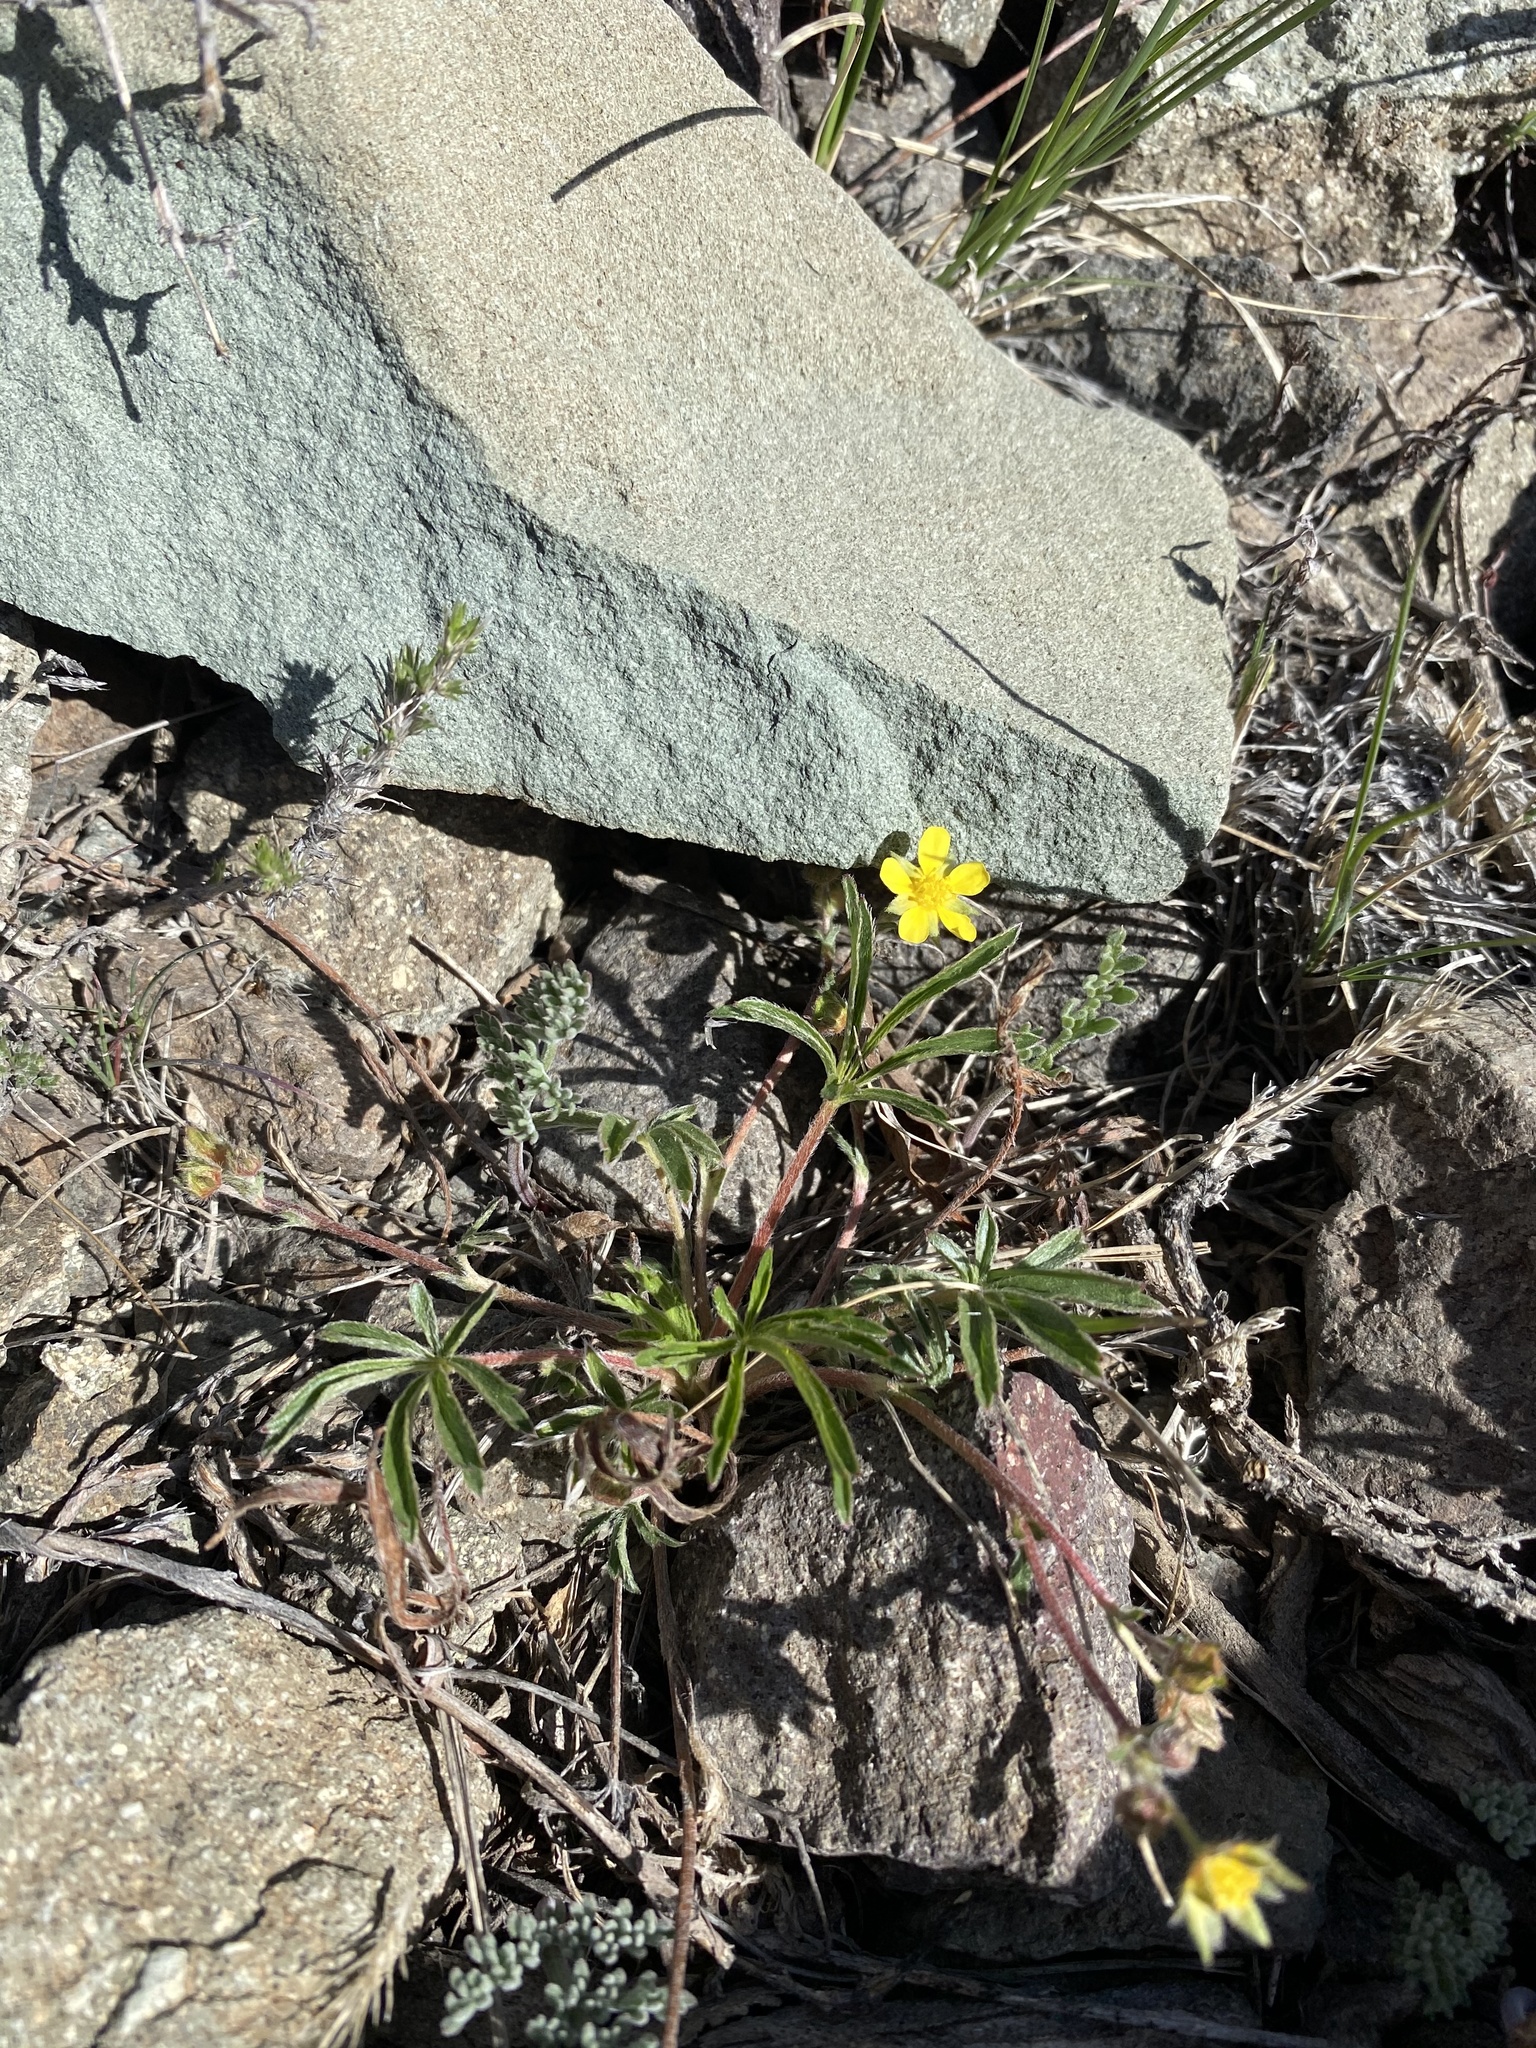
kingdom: Plantae
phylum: Tracheophyta
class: Magnoliopsida
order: Rosales
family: Rosaceae
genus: Potentilla
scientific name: Potentilla johnstonii
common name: Sagebrush cinquefoil
